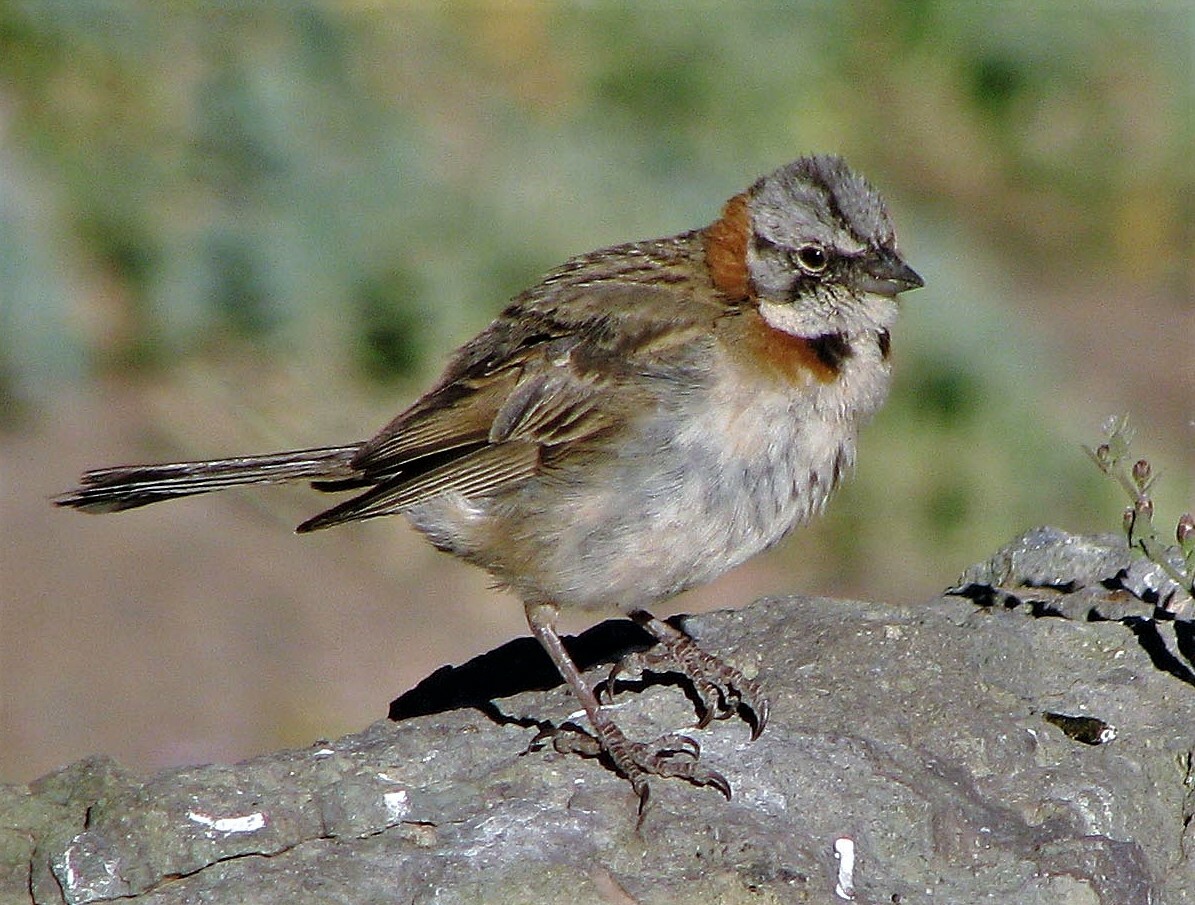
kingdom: Animalia
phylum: Chordata
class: Aves
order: Passeriformes
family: Passerellidae
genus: Zonotrichia
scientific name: Zonotrichia capensis
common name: Rufous-collared sparrow
